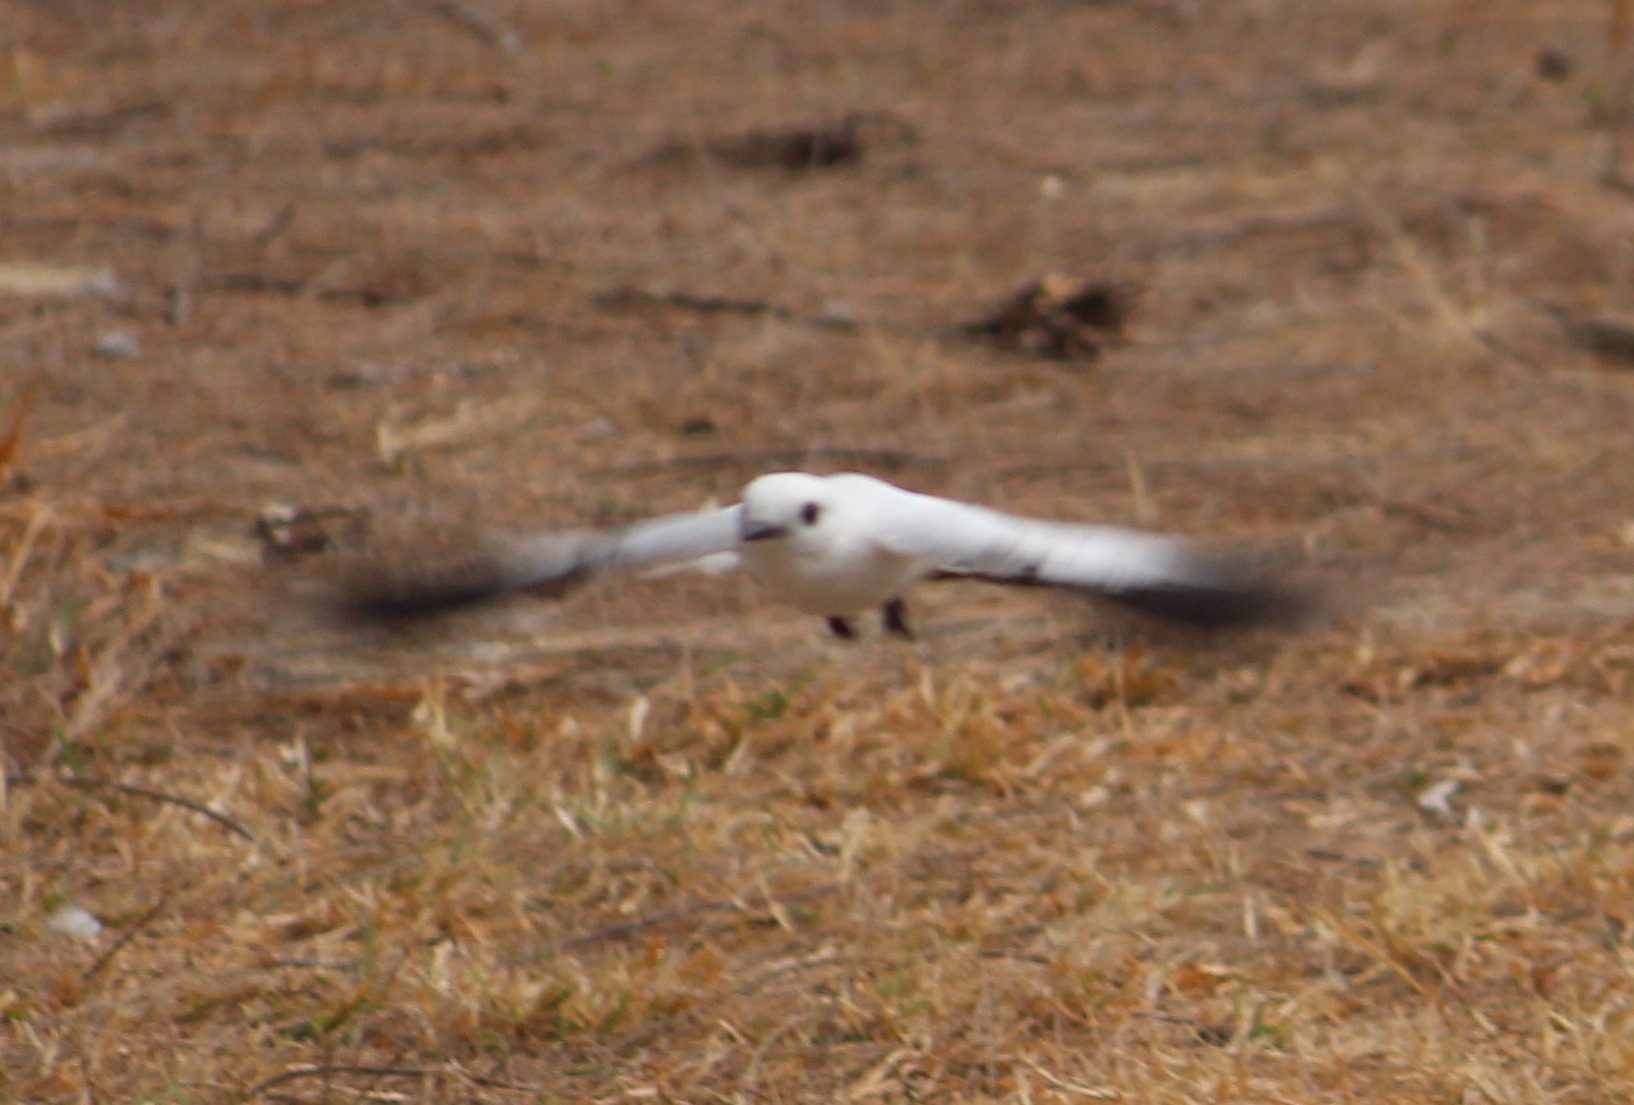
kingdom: Animalia
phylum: Chordata
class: Aves
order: Passeriformes
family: Tyrannidae
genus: Xolmis
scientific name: Xolmis irupero
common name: White monjita
